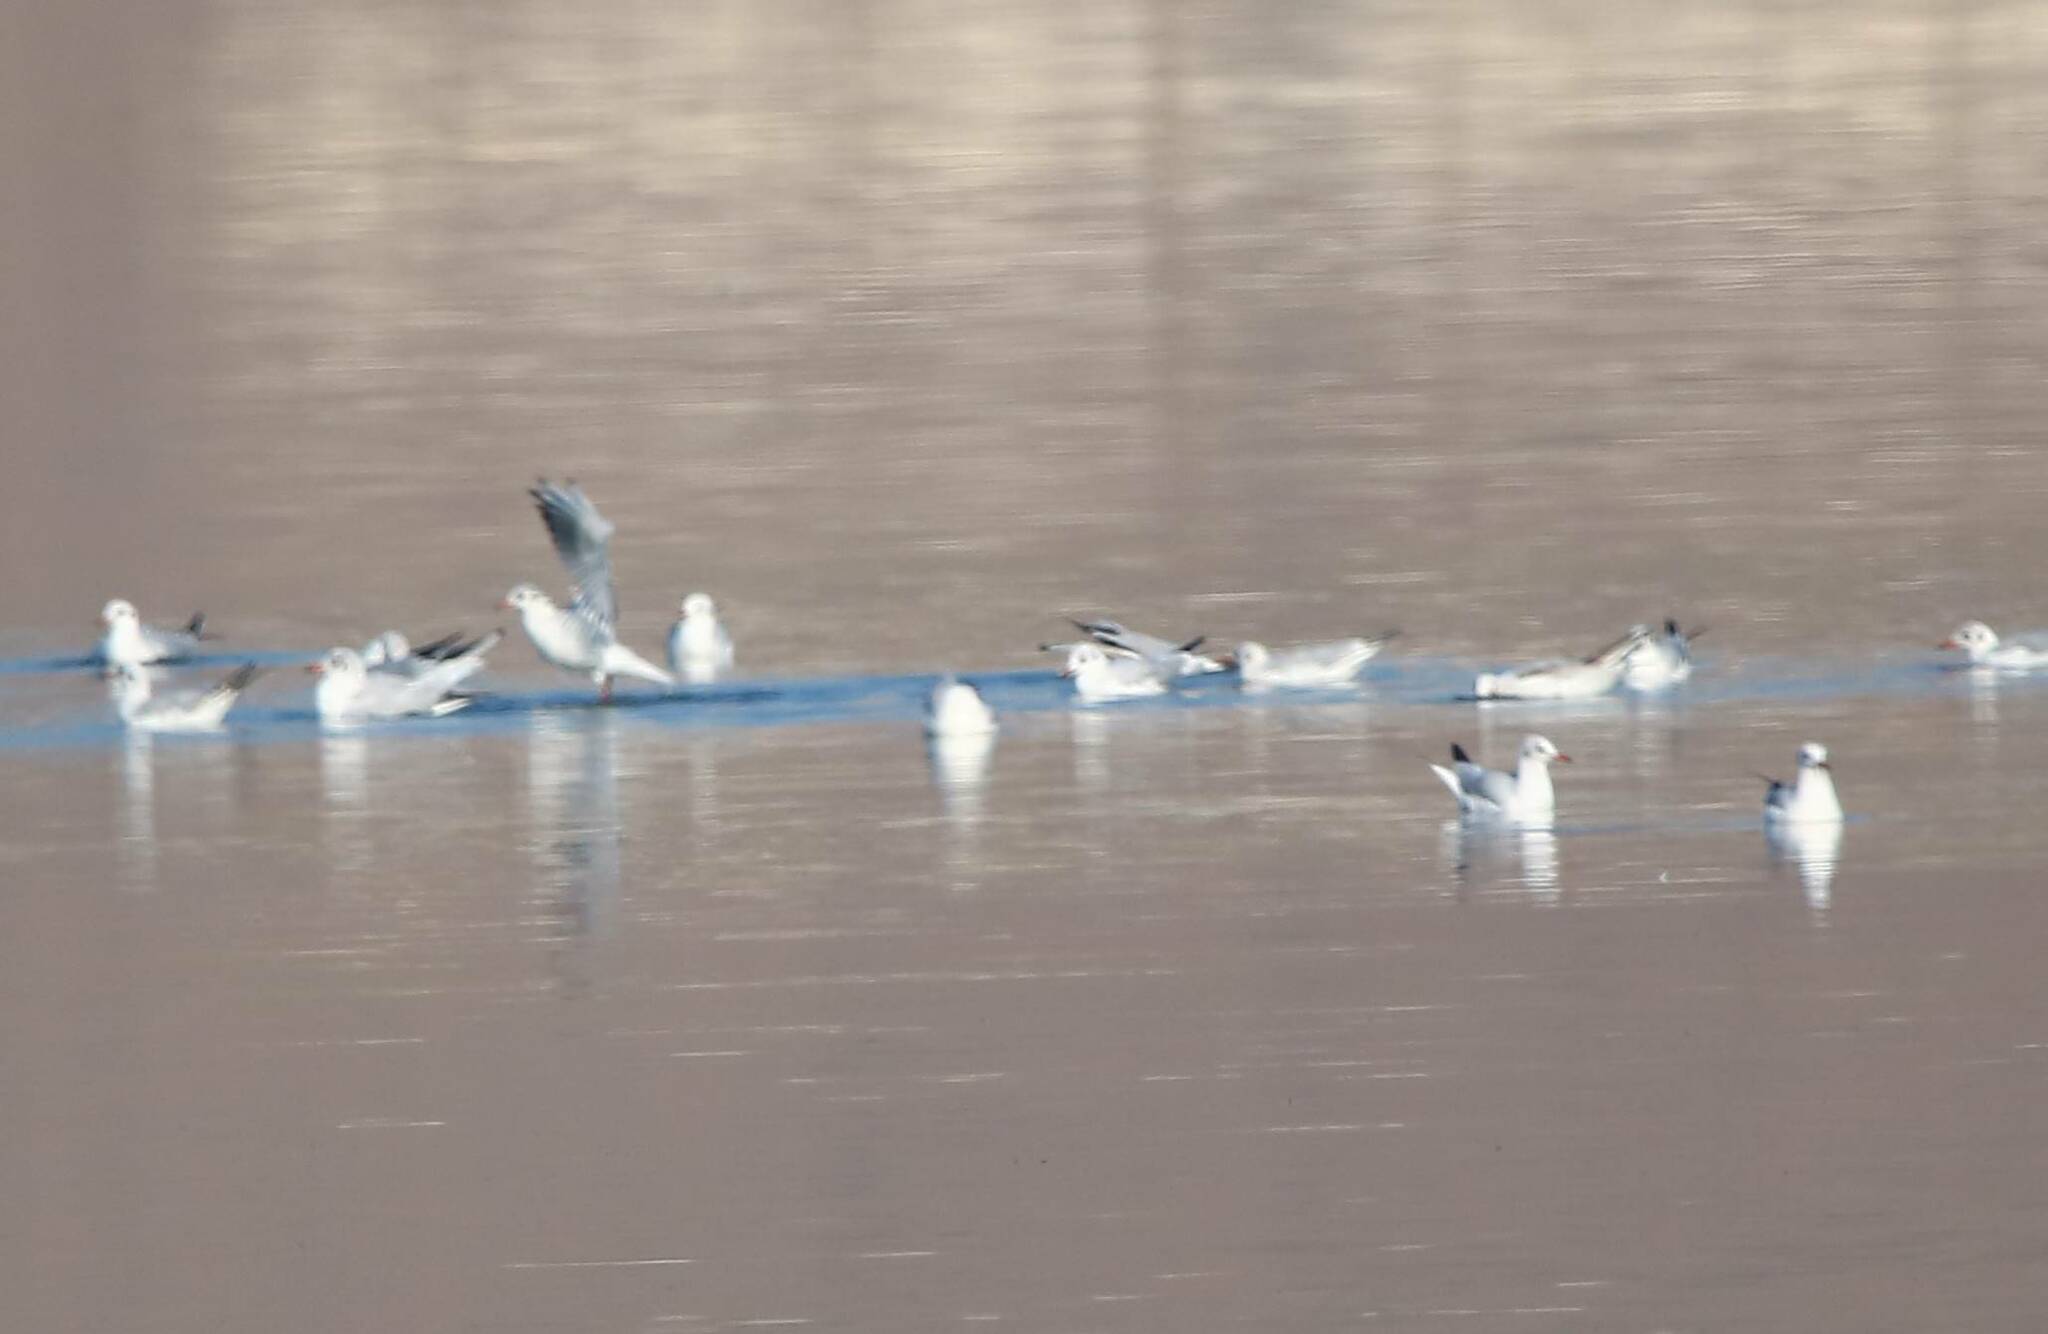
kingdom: Animalia
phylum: Chordata
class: Aves
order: Charadriiformes
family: Laridae
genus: Chroicocephalus
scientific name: Chroicocephalus ridibundus
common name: Black-headed gull
